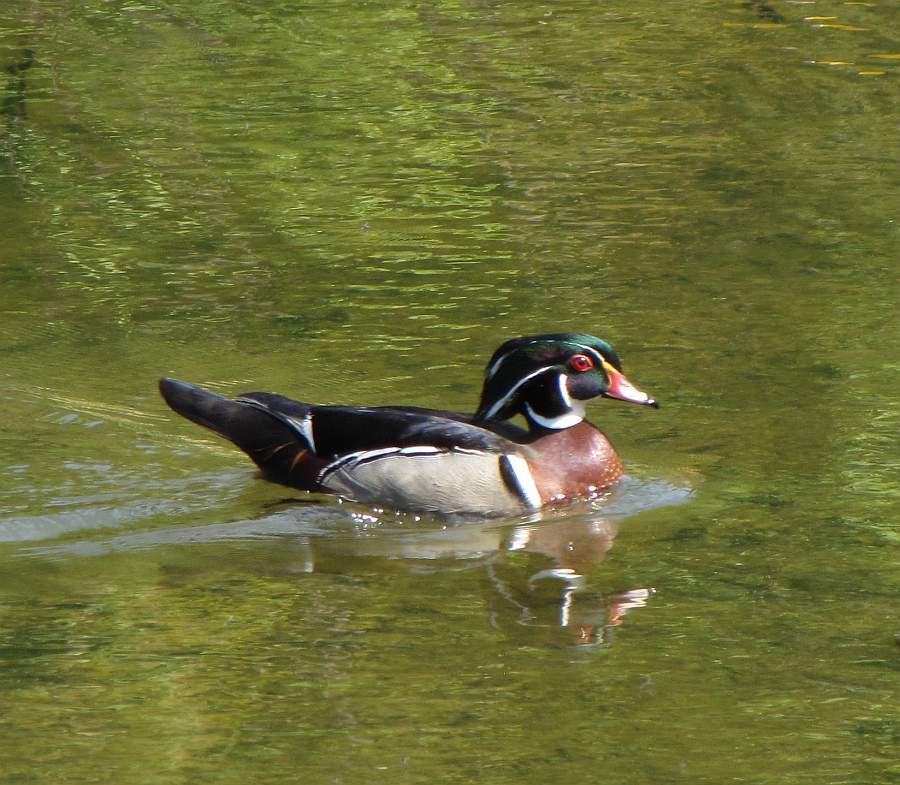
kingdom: Animalia
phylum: Chordata
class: Aves
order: Anseriformes
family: Anatidae
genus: Aix
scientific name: Aix sponsa
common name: Wood duck
